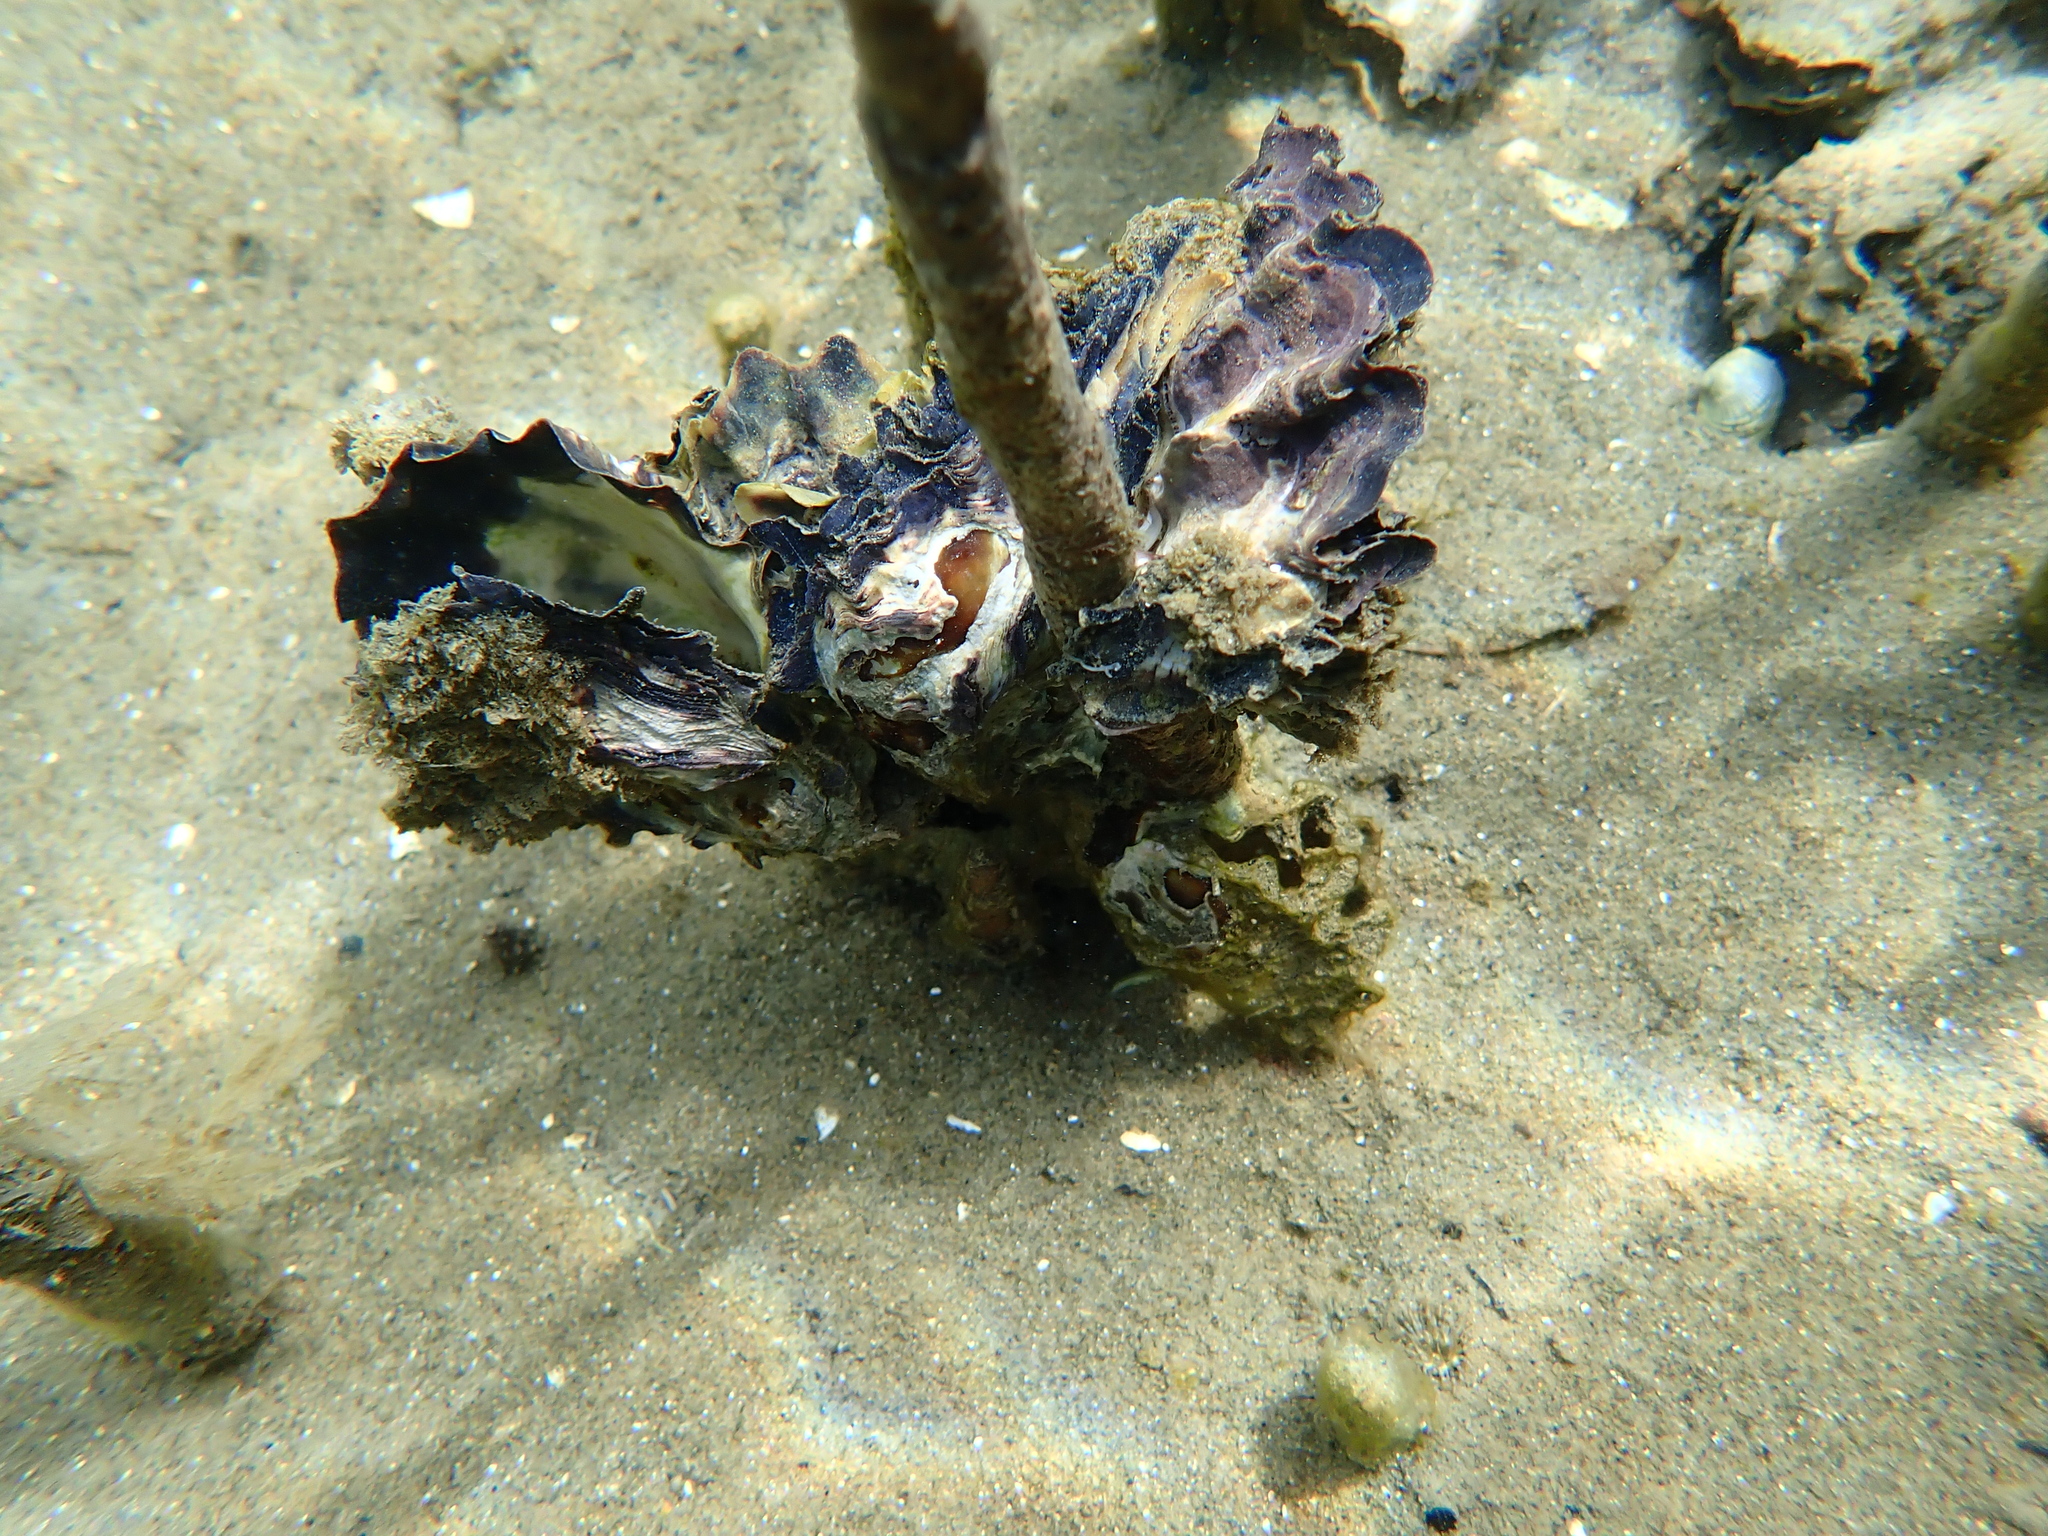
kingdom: Animalia
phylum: Mollusca
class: Bivalvia
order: Ostreida
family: Ostreidae
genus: Magallana
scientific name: Magallana gigas
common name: Pacific oyster
